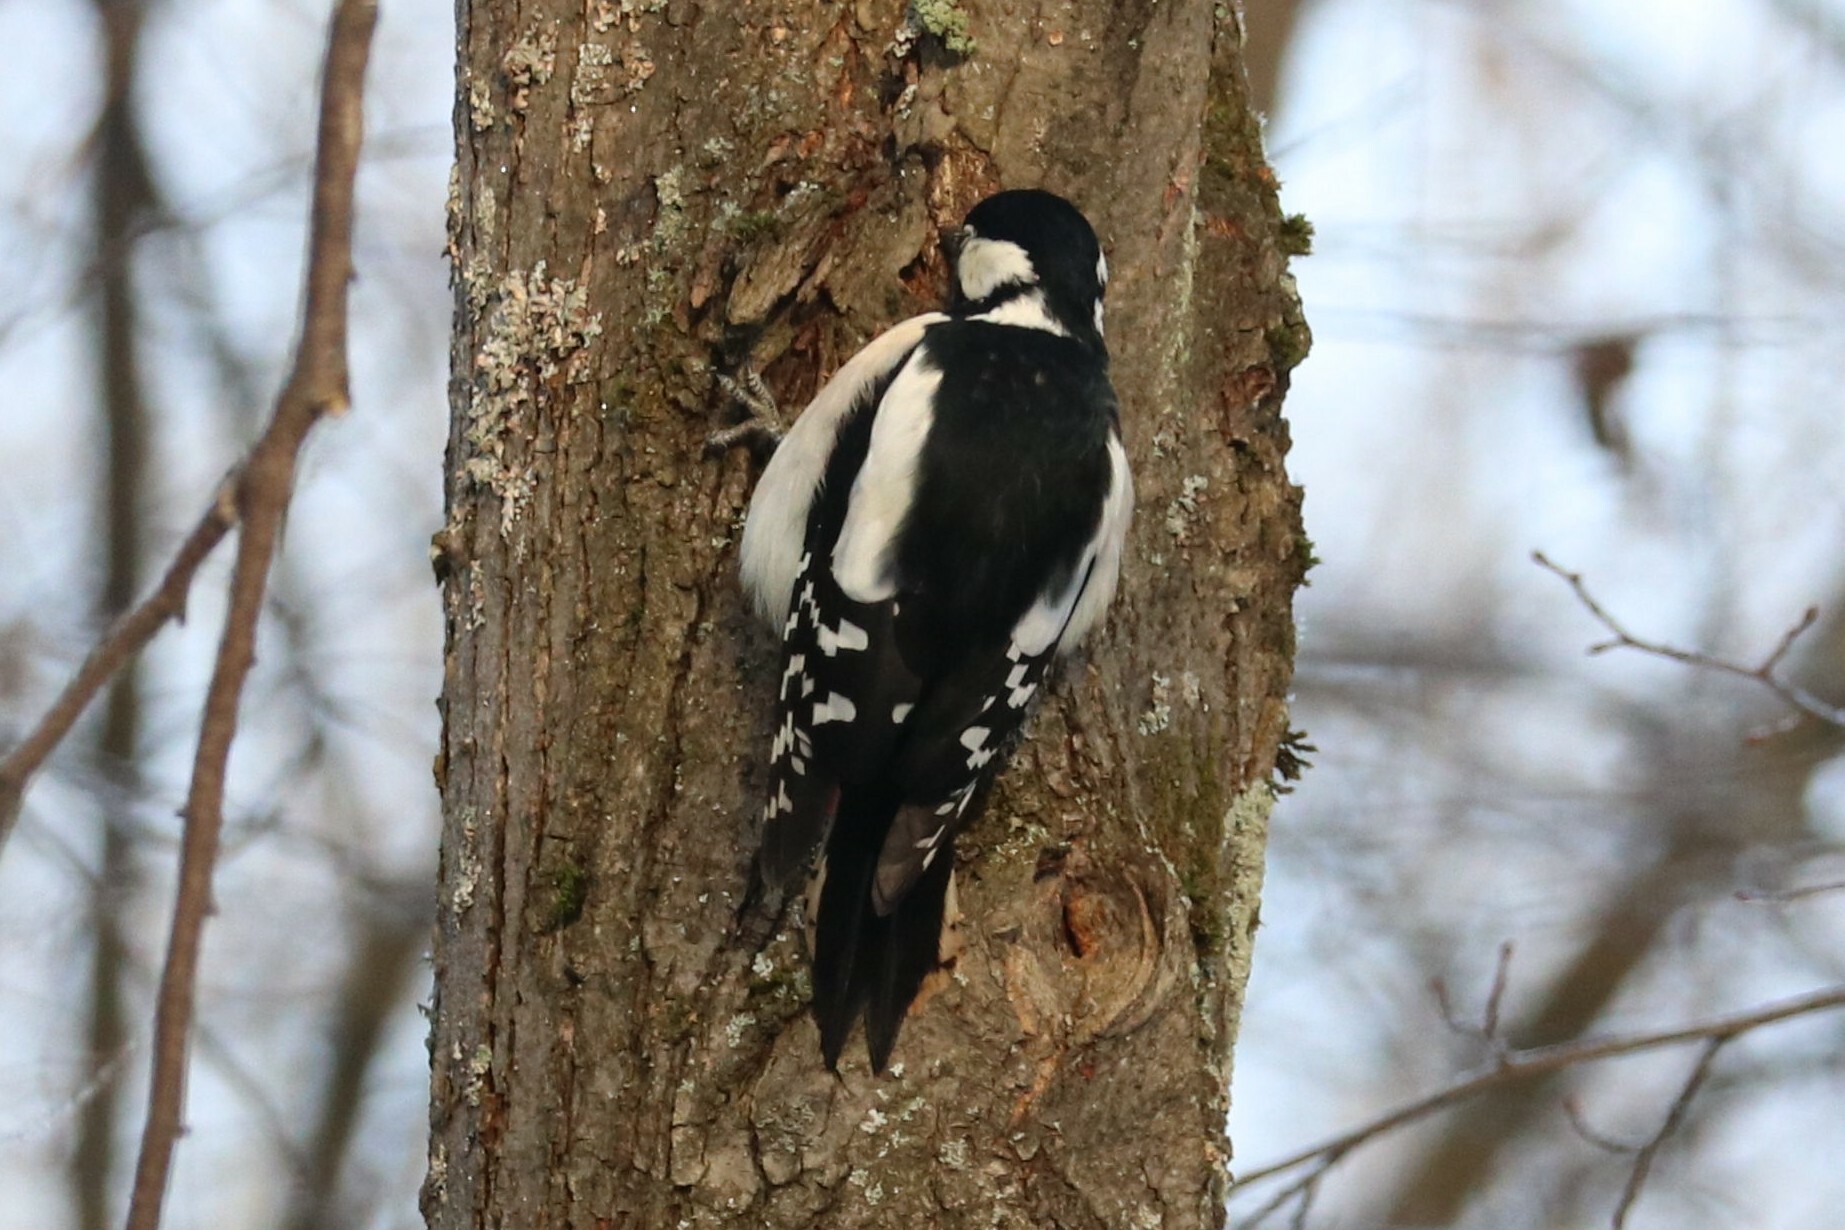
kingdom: Animalia
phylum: Chordata
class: Aves
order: Piciformes
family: Picidae
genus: Dendrocopos
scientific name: Dendrocopos major
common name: Great spotted woodpecker
